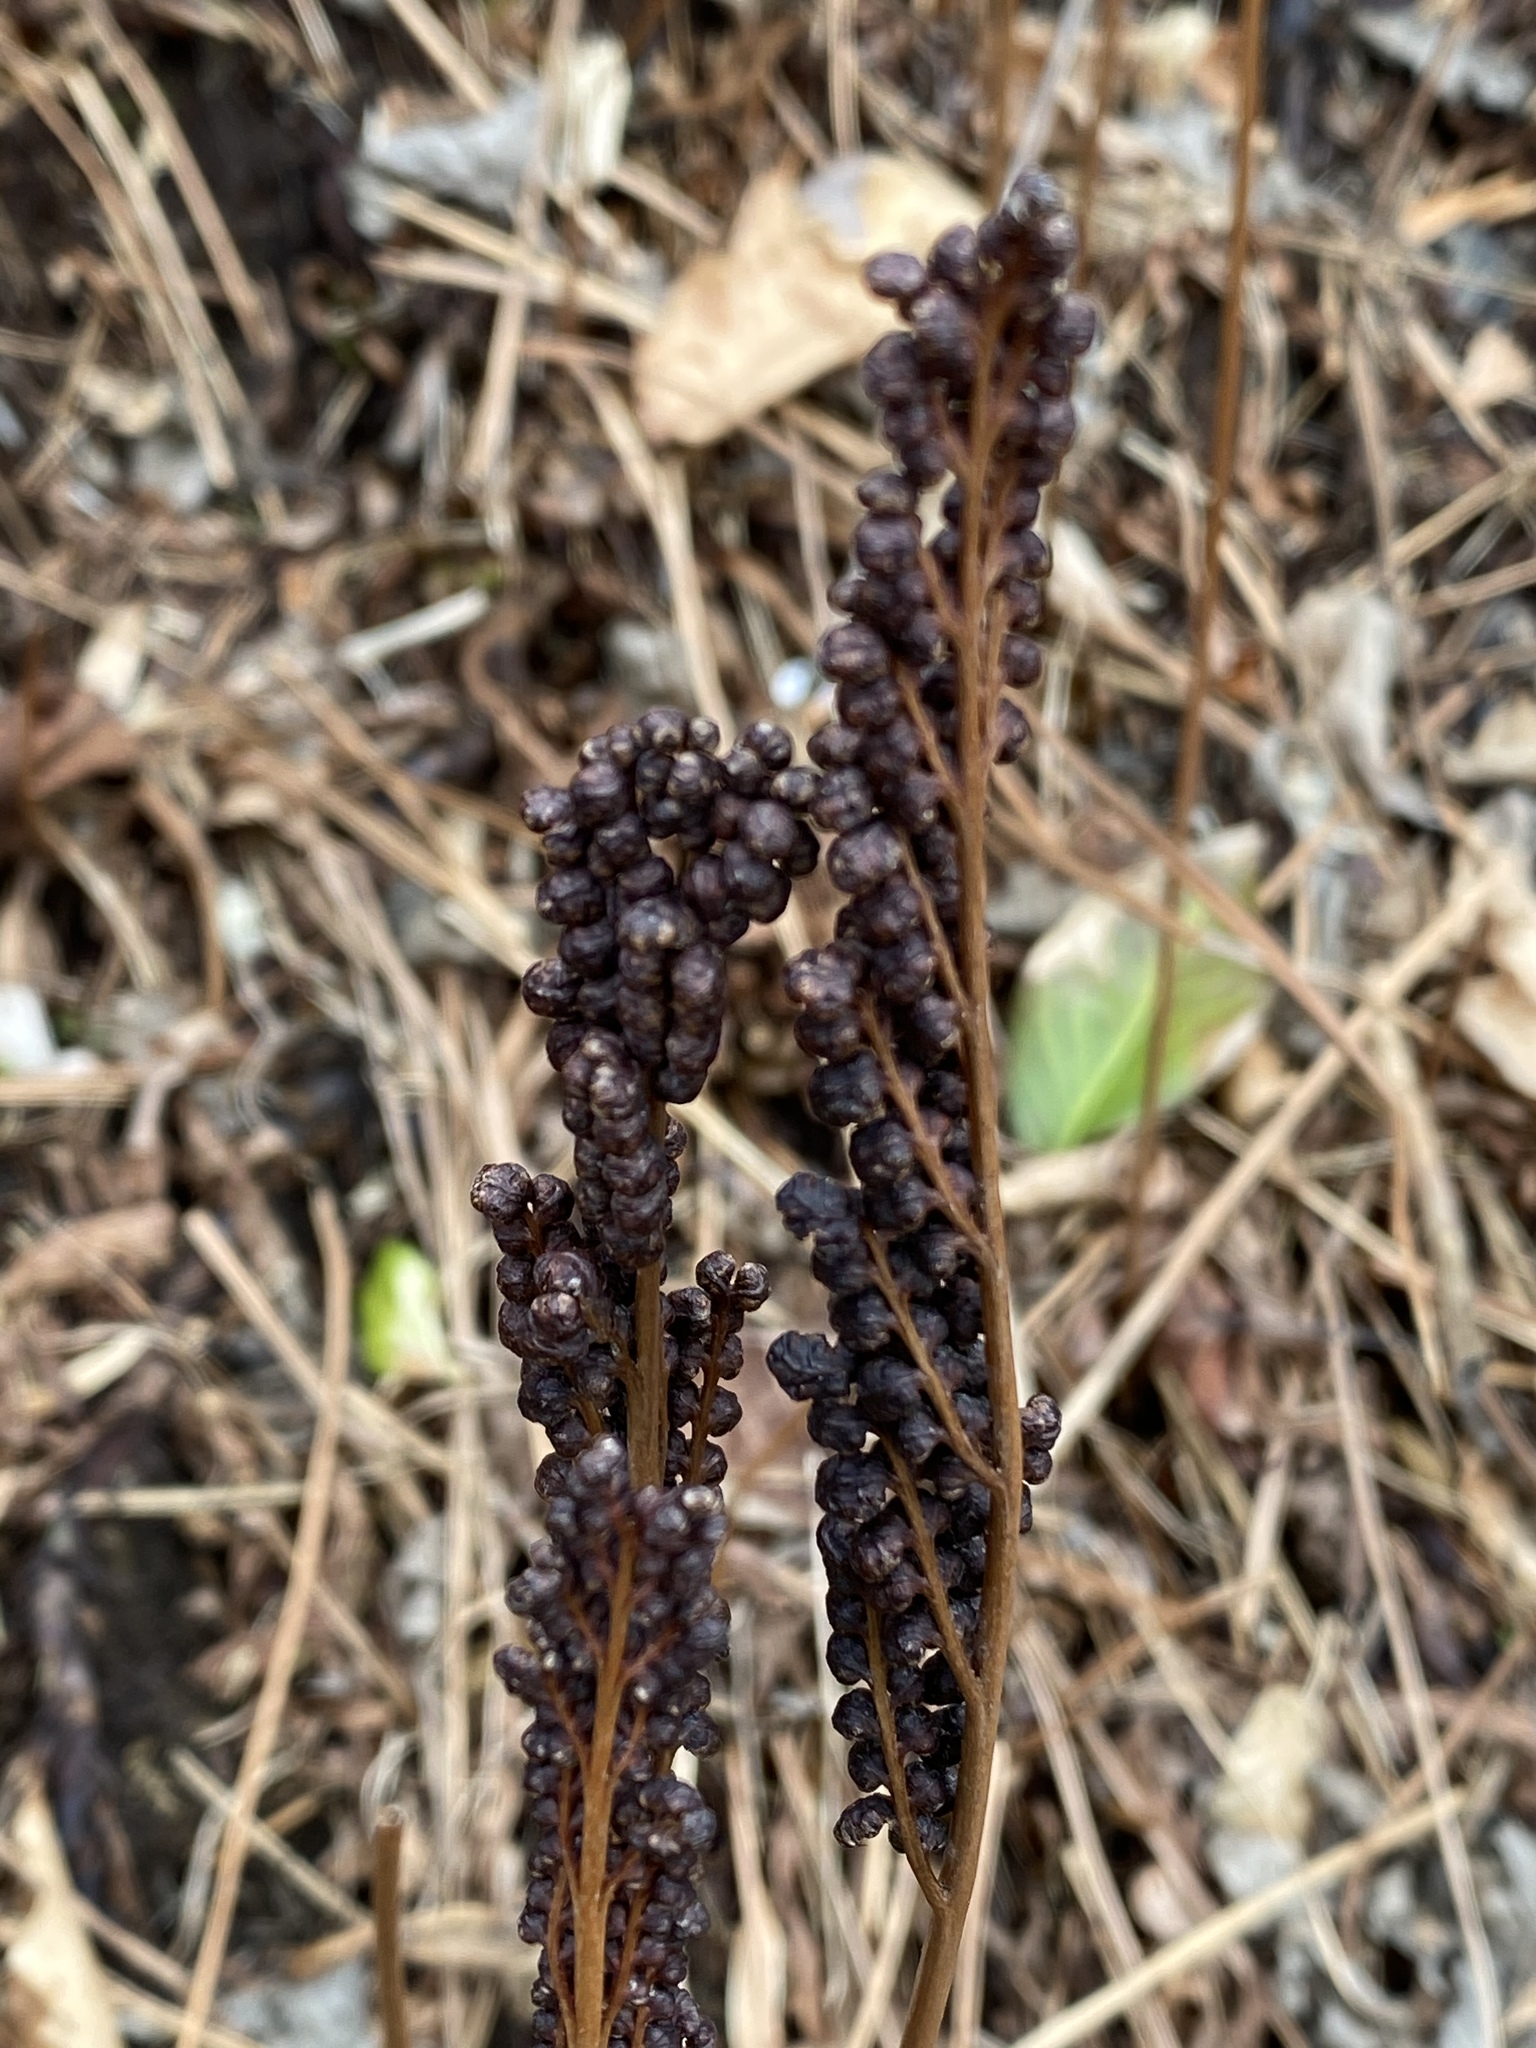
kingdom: Plantae
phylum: Tracheophyta
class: Polypodiopsida
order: Polypodiales
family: Onocleaceae
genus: Onoclea
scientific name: Onoclea sensibilis
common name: Sensitive fern
